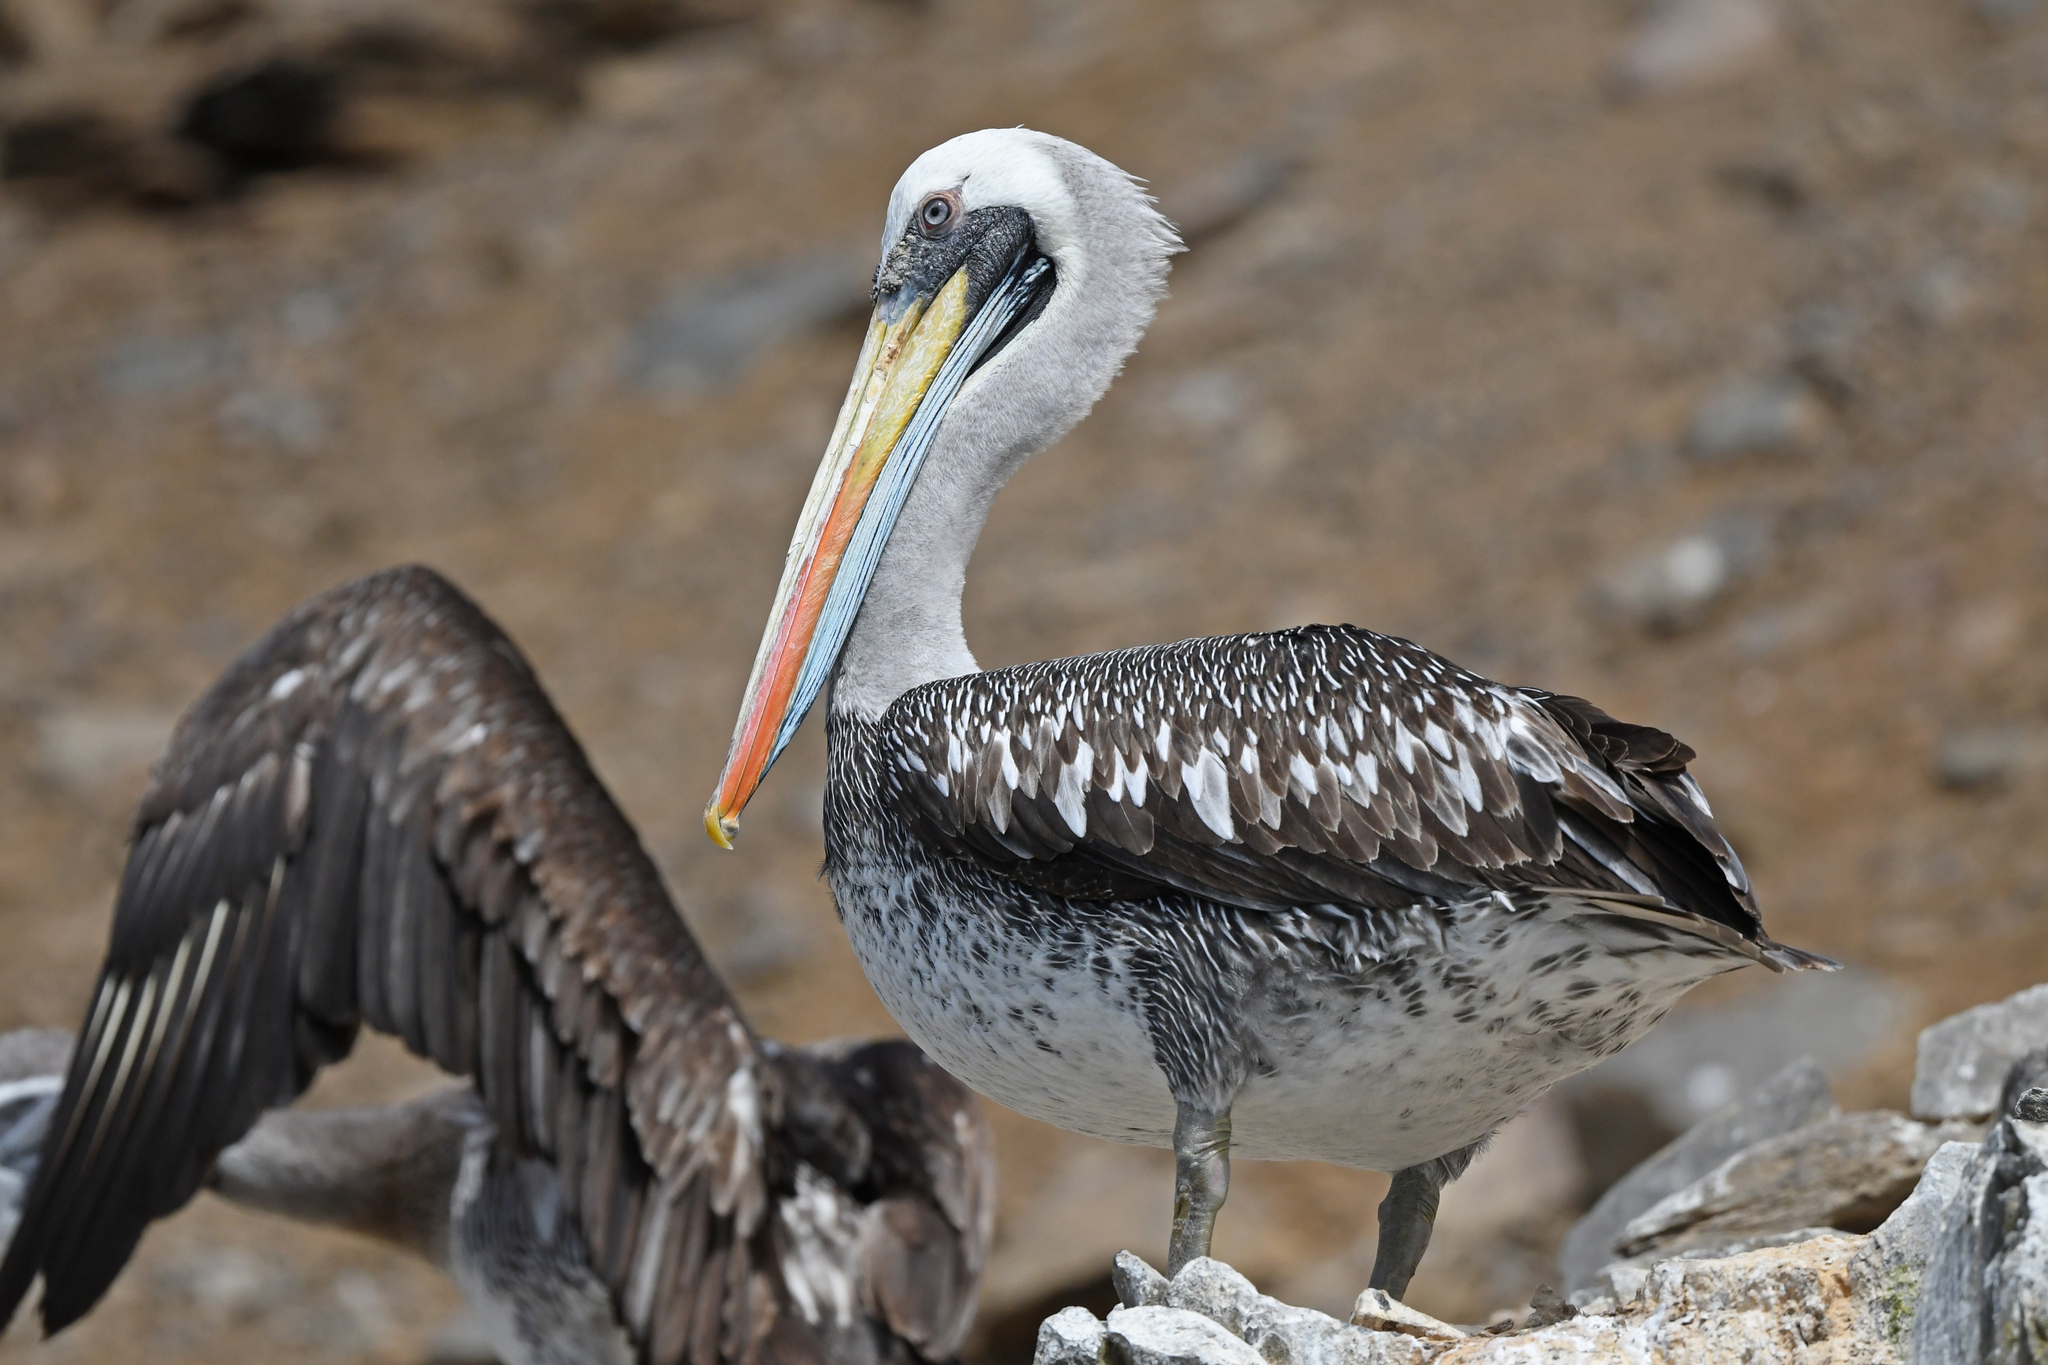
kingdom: Animalia
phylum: Chordata
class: Aves
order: Pelecaniformes
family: Pelecanidae
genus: Pelecanus
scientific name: Pelecanus thagus
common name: Peruvian pelican
